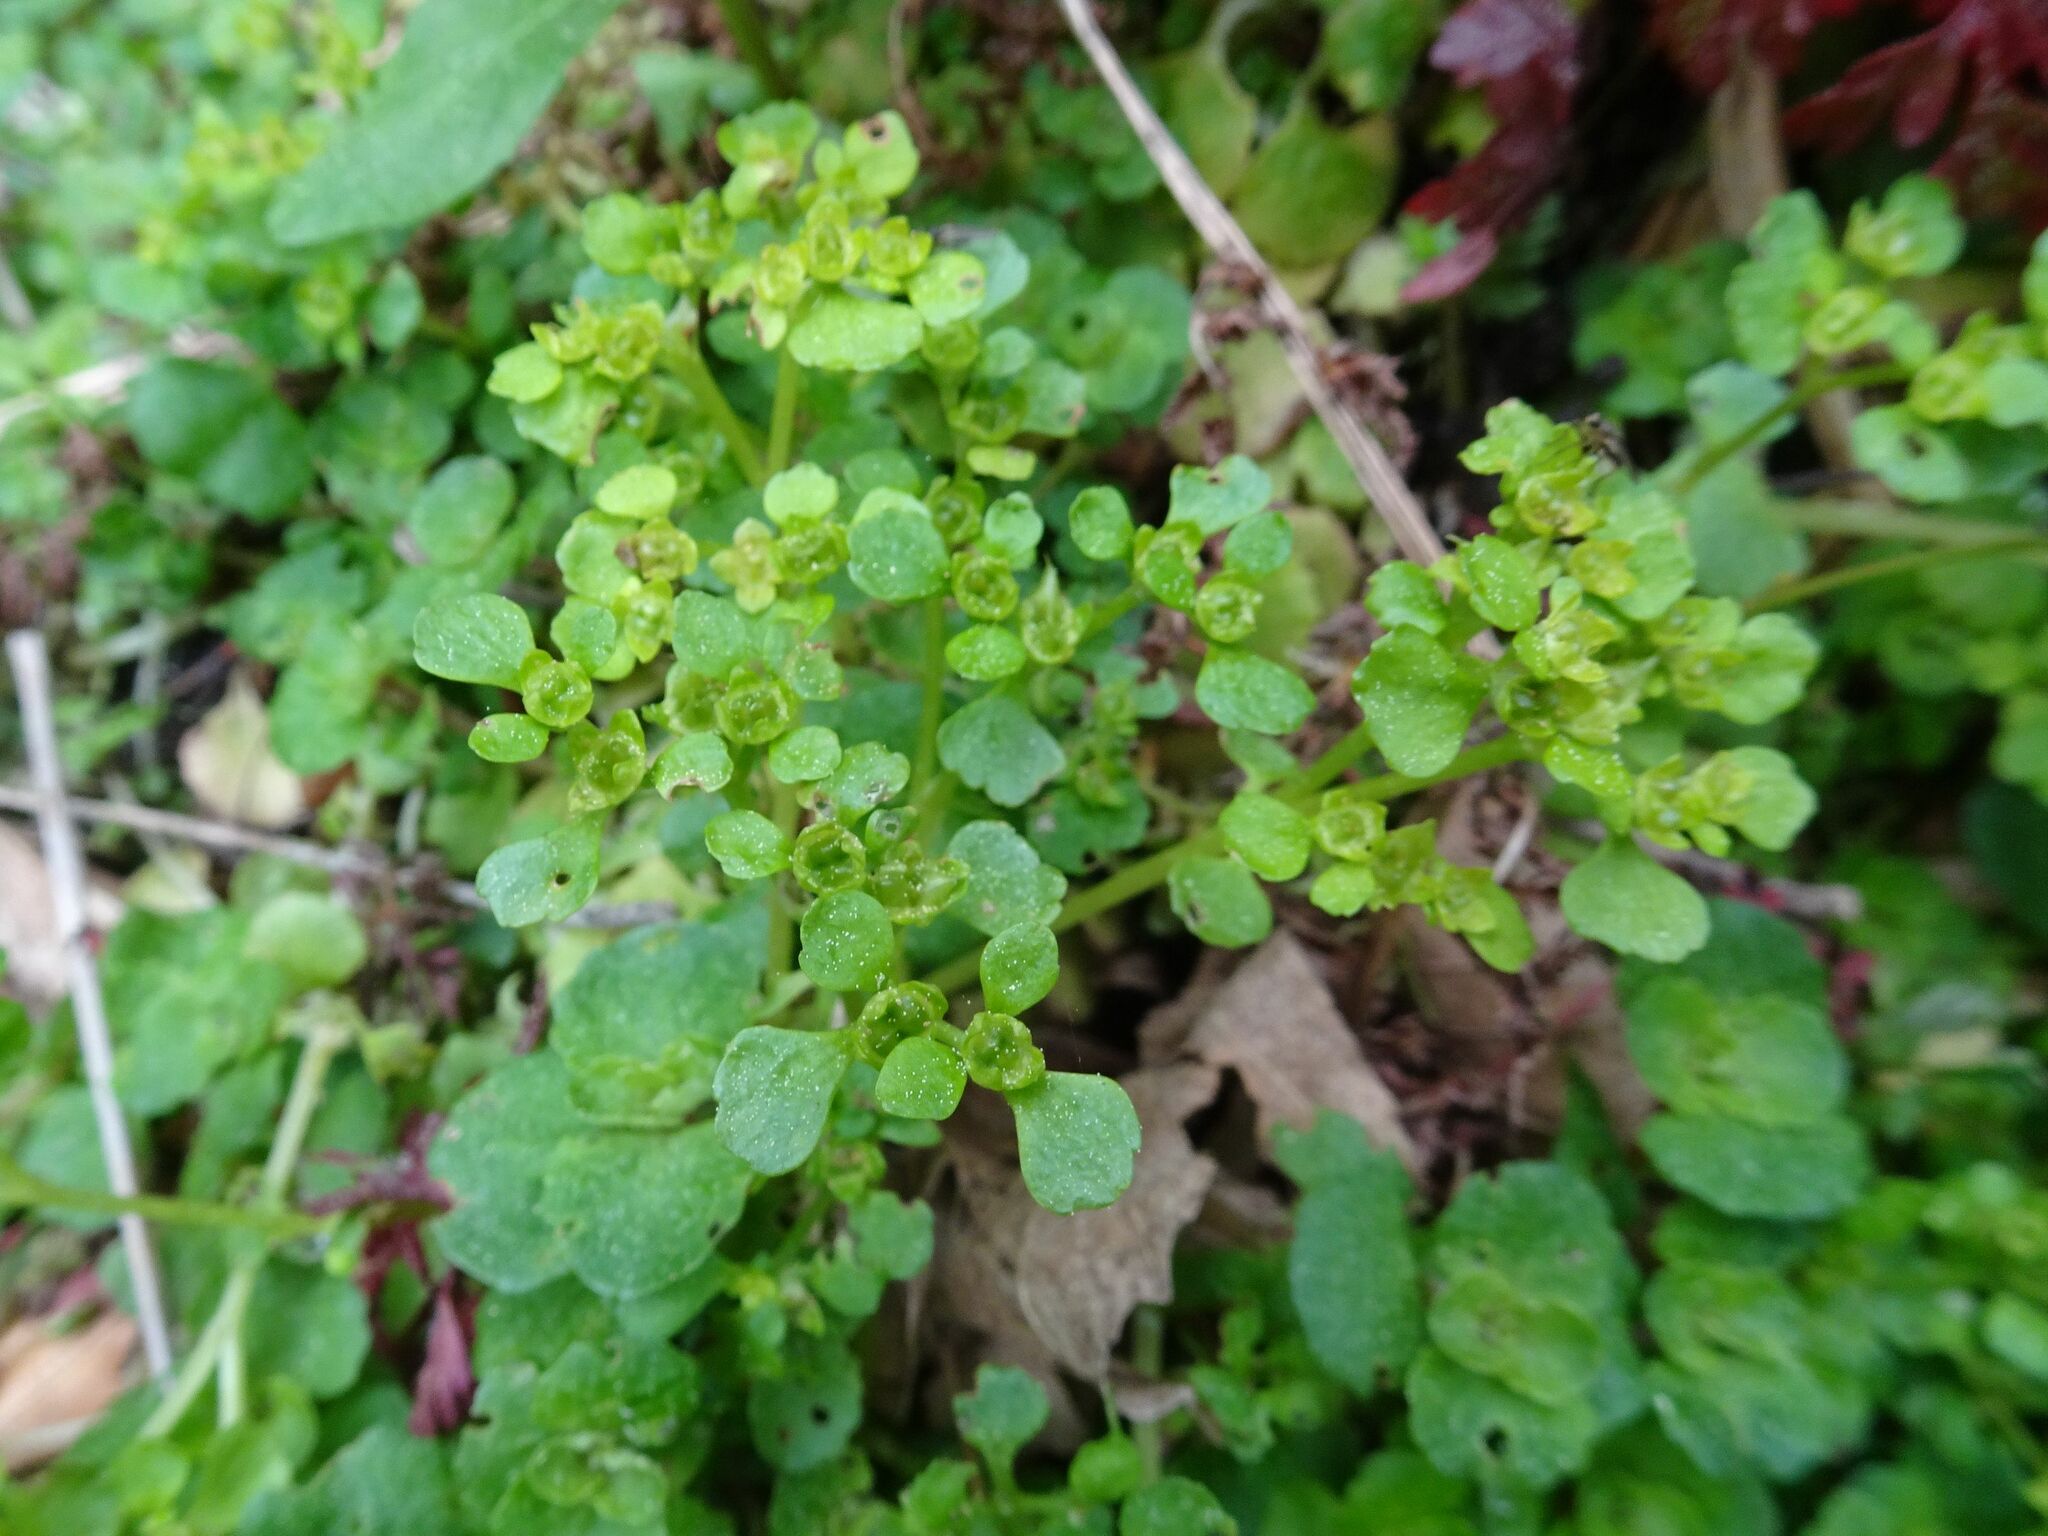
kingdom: Plantae
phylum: Tracheophyta
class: Magnoliopsida
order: Saxifragales
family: Saxifragaceae
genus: Chrysosplenium
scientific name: Chrysosplenium oppositifolium
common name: Opposite-leaved golden-saxifrage
